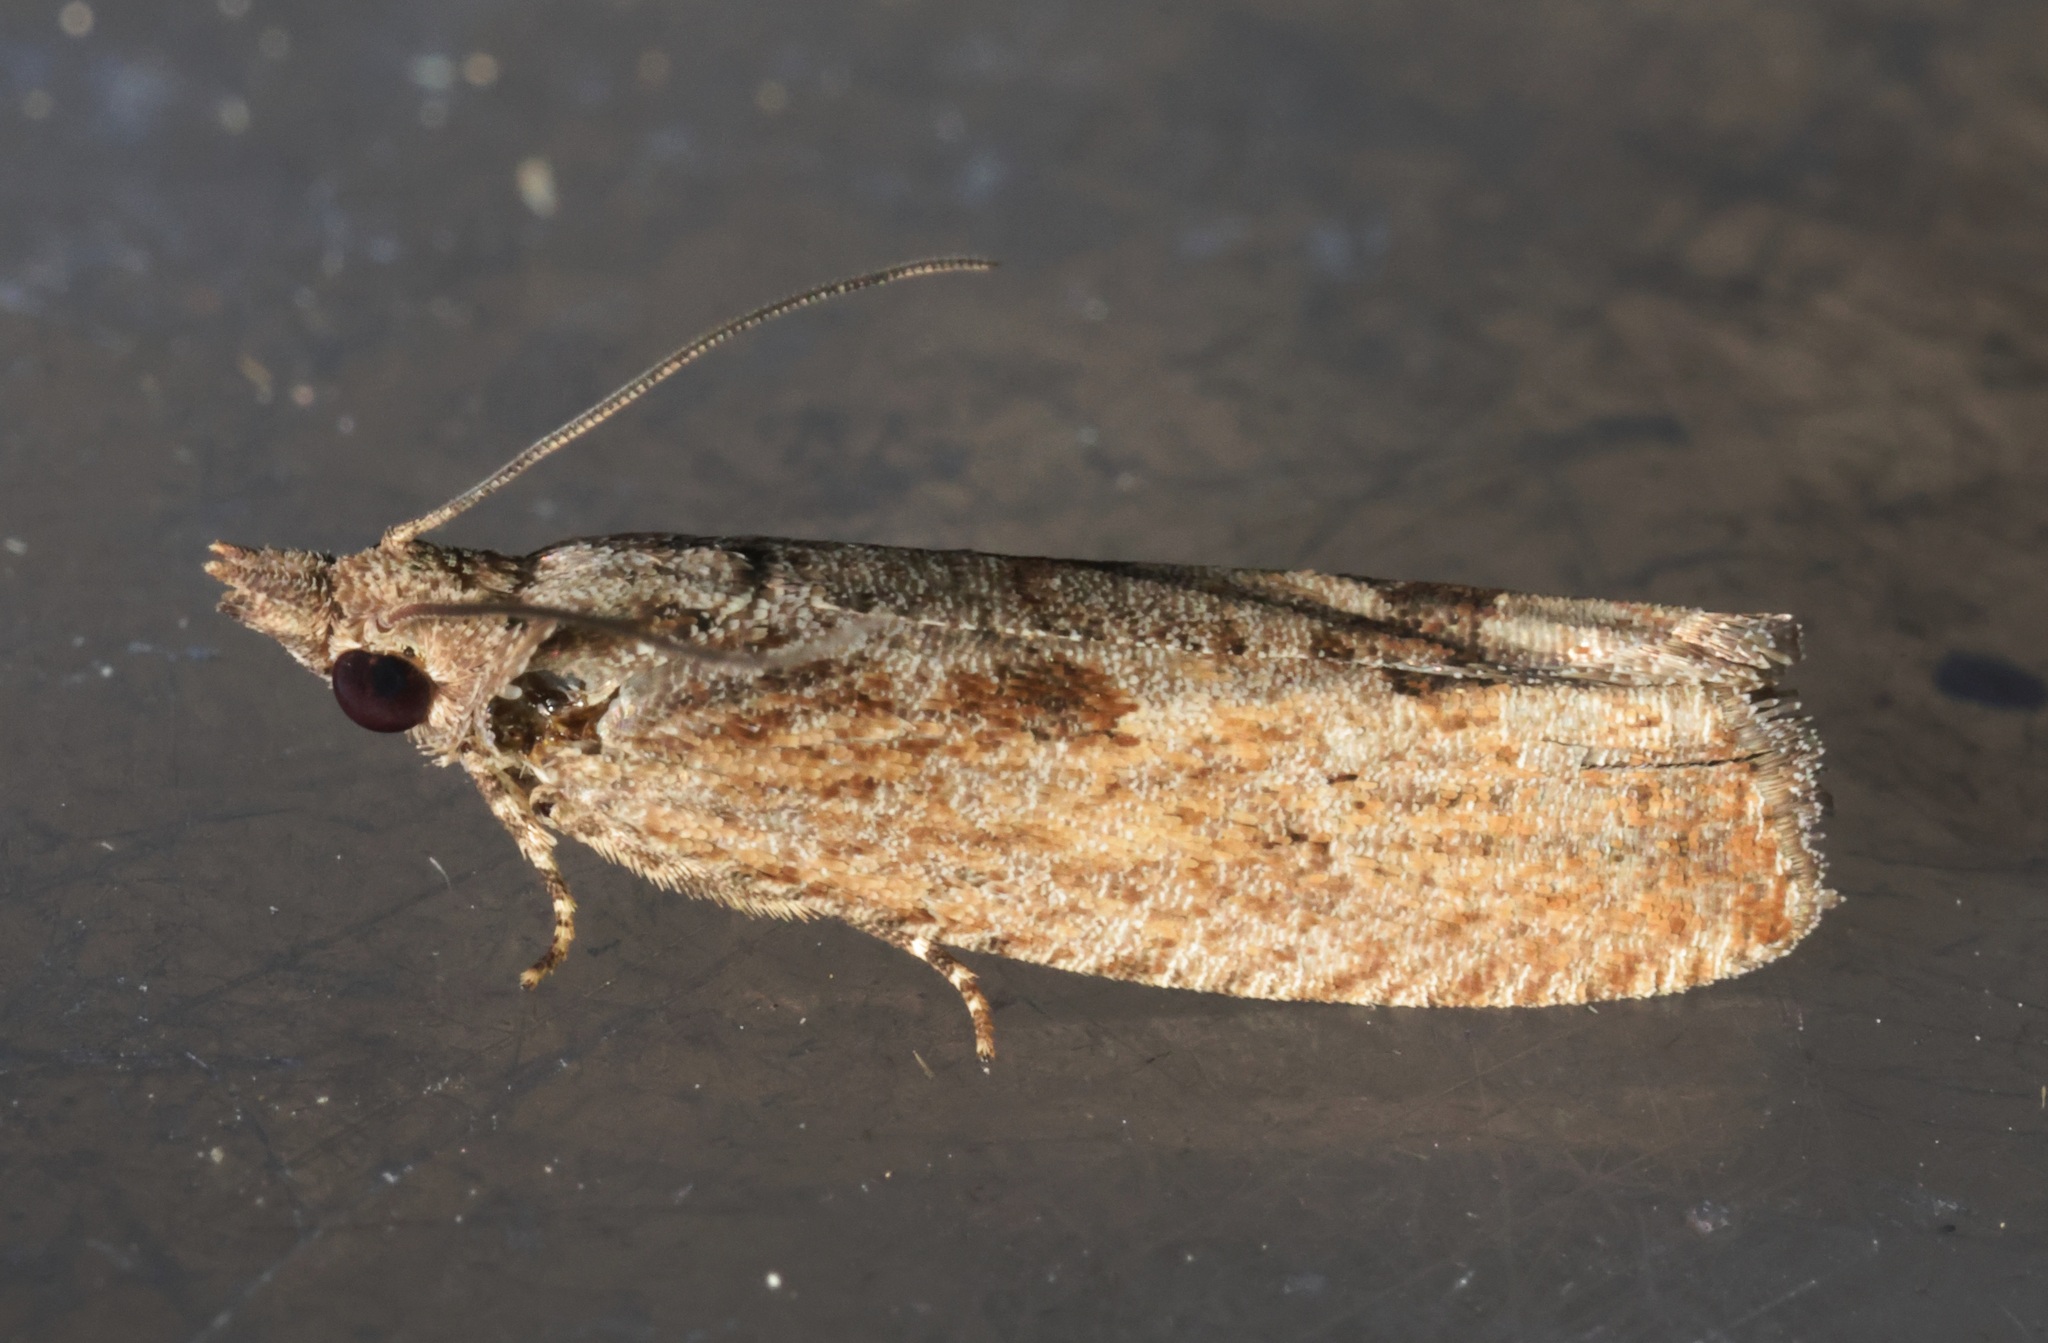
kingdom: Animalia
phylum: Arthropoda
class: Insecta
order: Lepidoptera
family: Tortricidae
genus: Strepsicrates
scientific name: Strepsicrates semicanella
